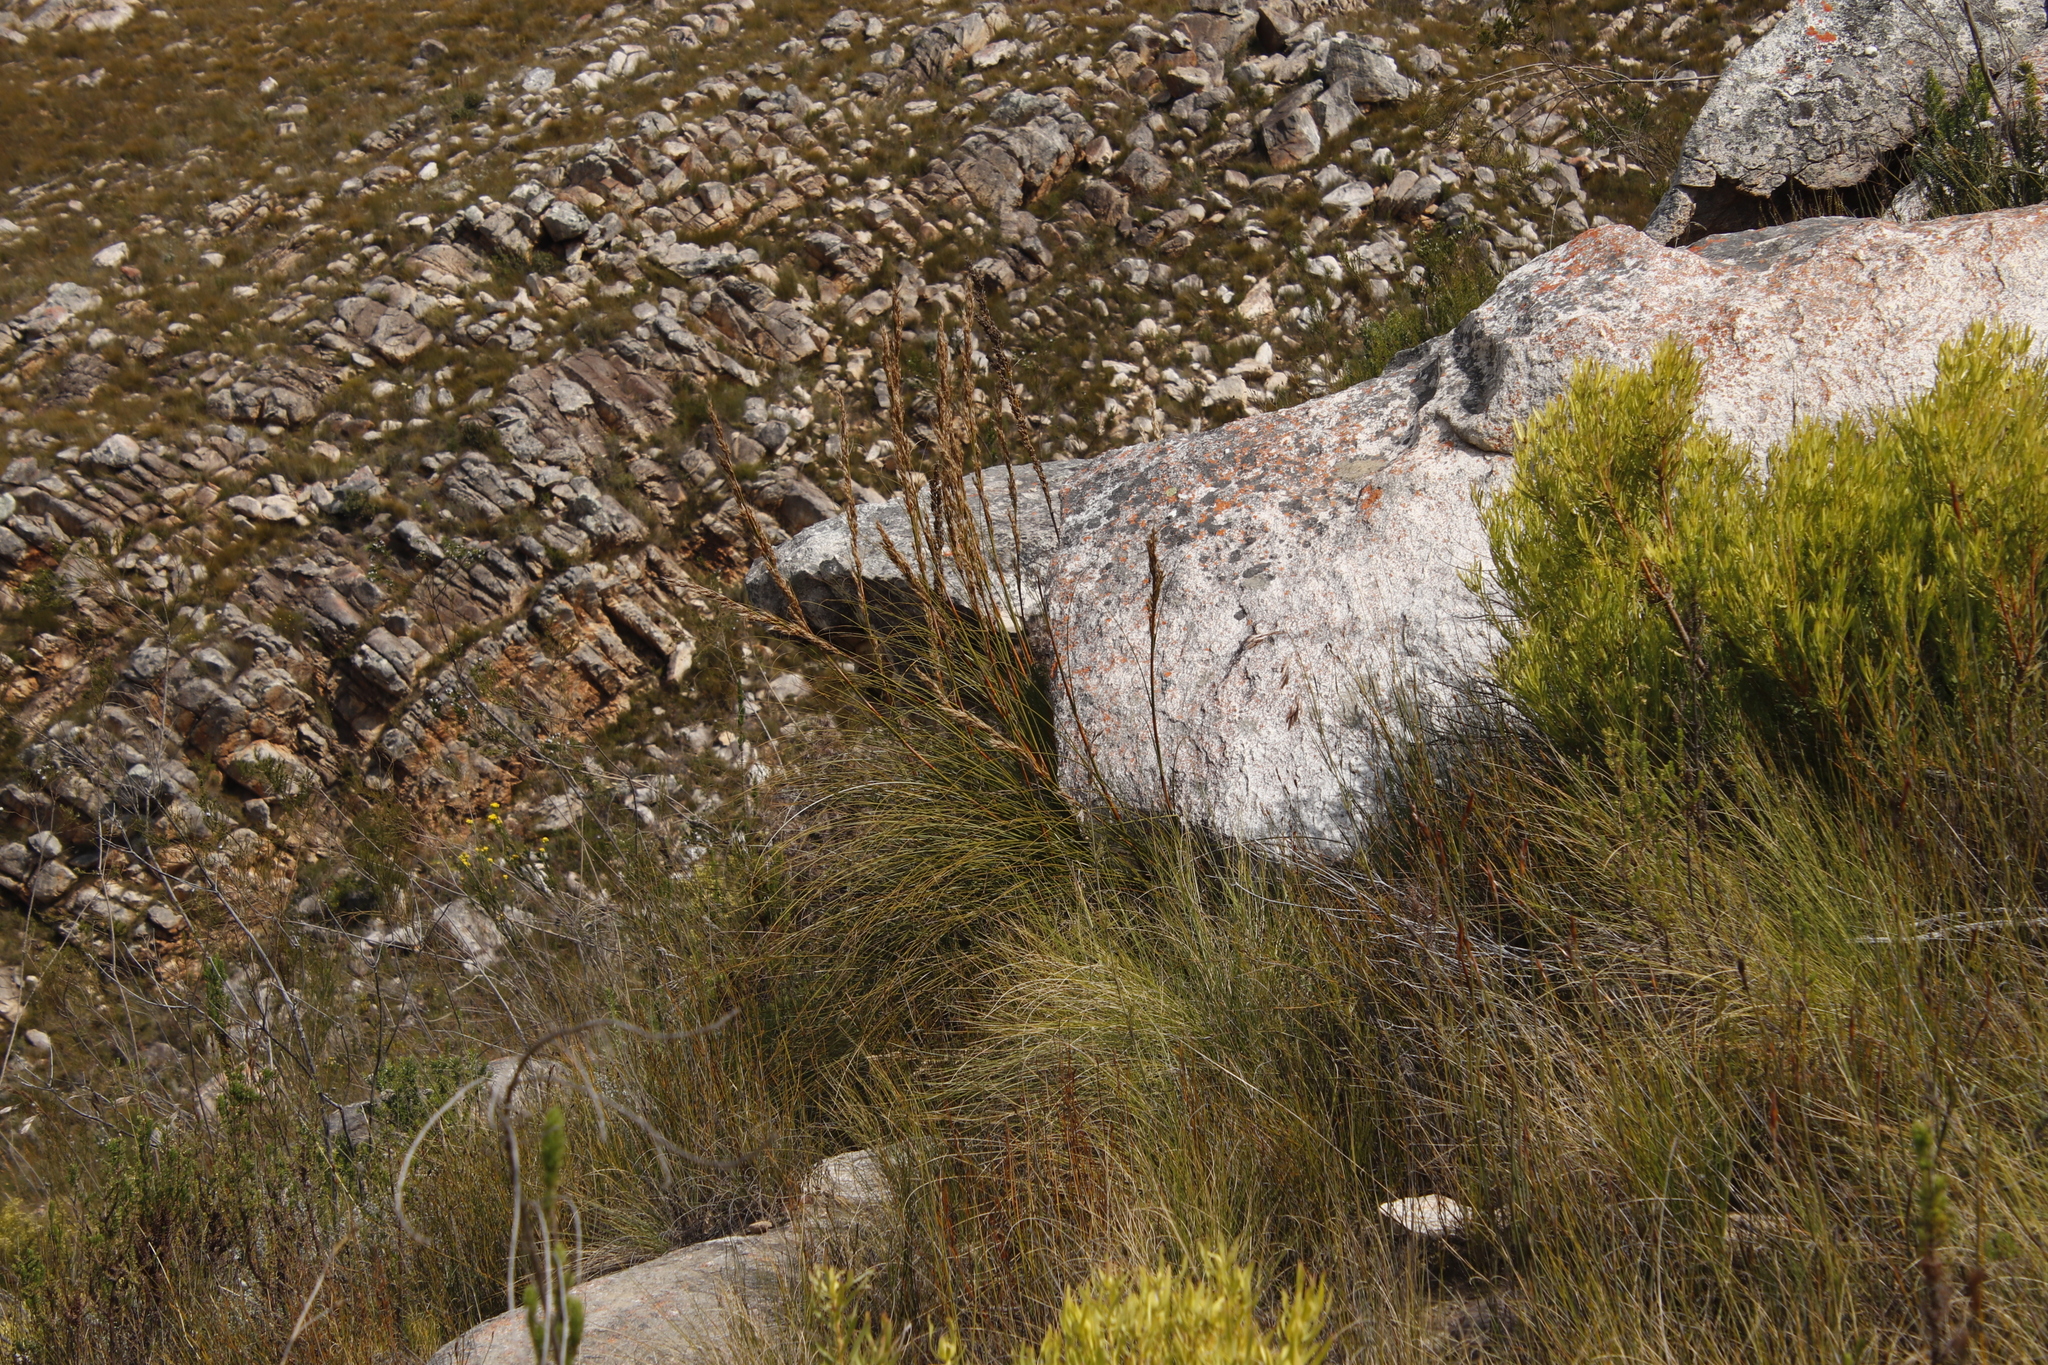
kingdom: Plantae
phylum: Tracheophyta
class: Liliopsida
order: Poales
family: Cyperaceae
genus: Tetraria
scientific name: Tetraria involucrata
